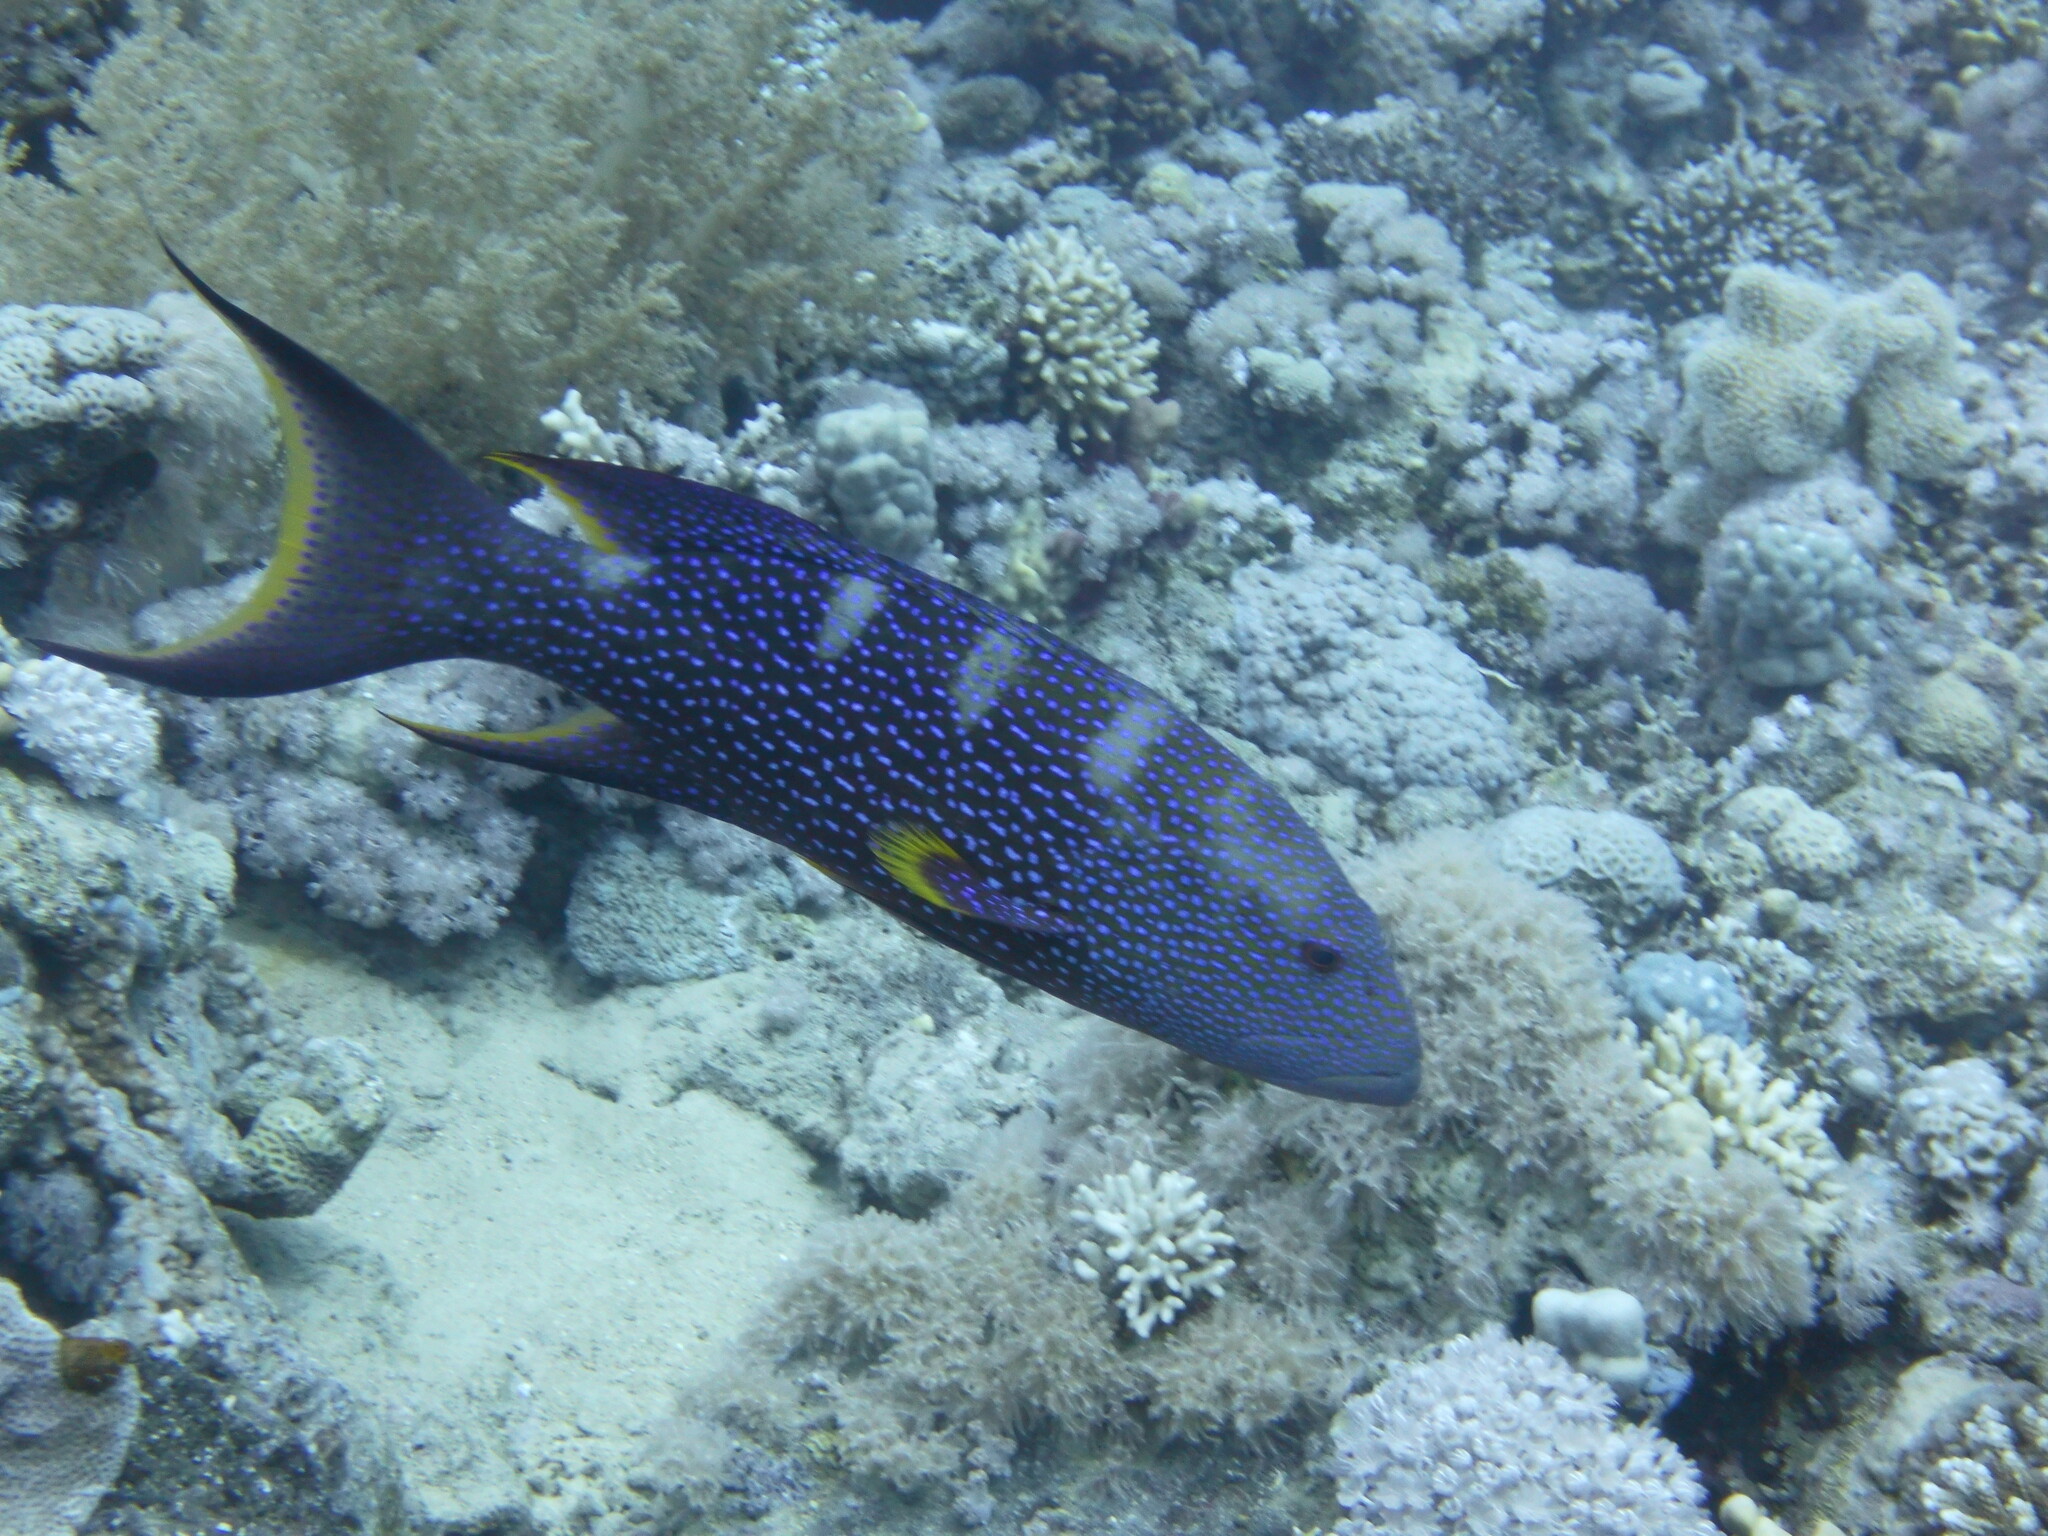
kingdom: Animalia
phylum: Chordata
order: Perciformes
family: Serranidae
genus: Variola
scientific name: Variola louti
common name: Yellow-edged lyretail
